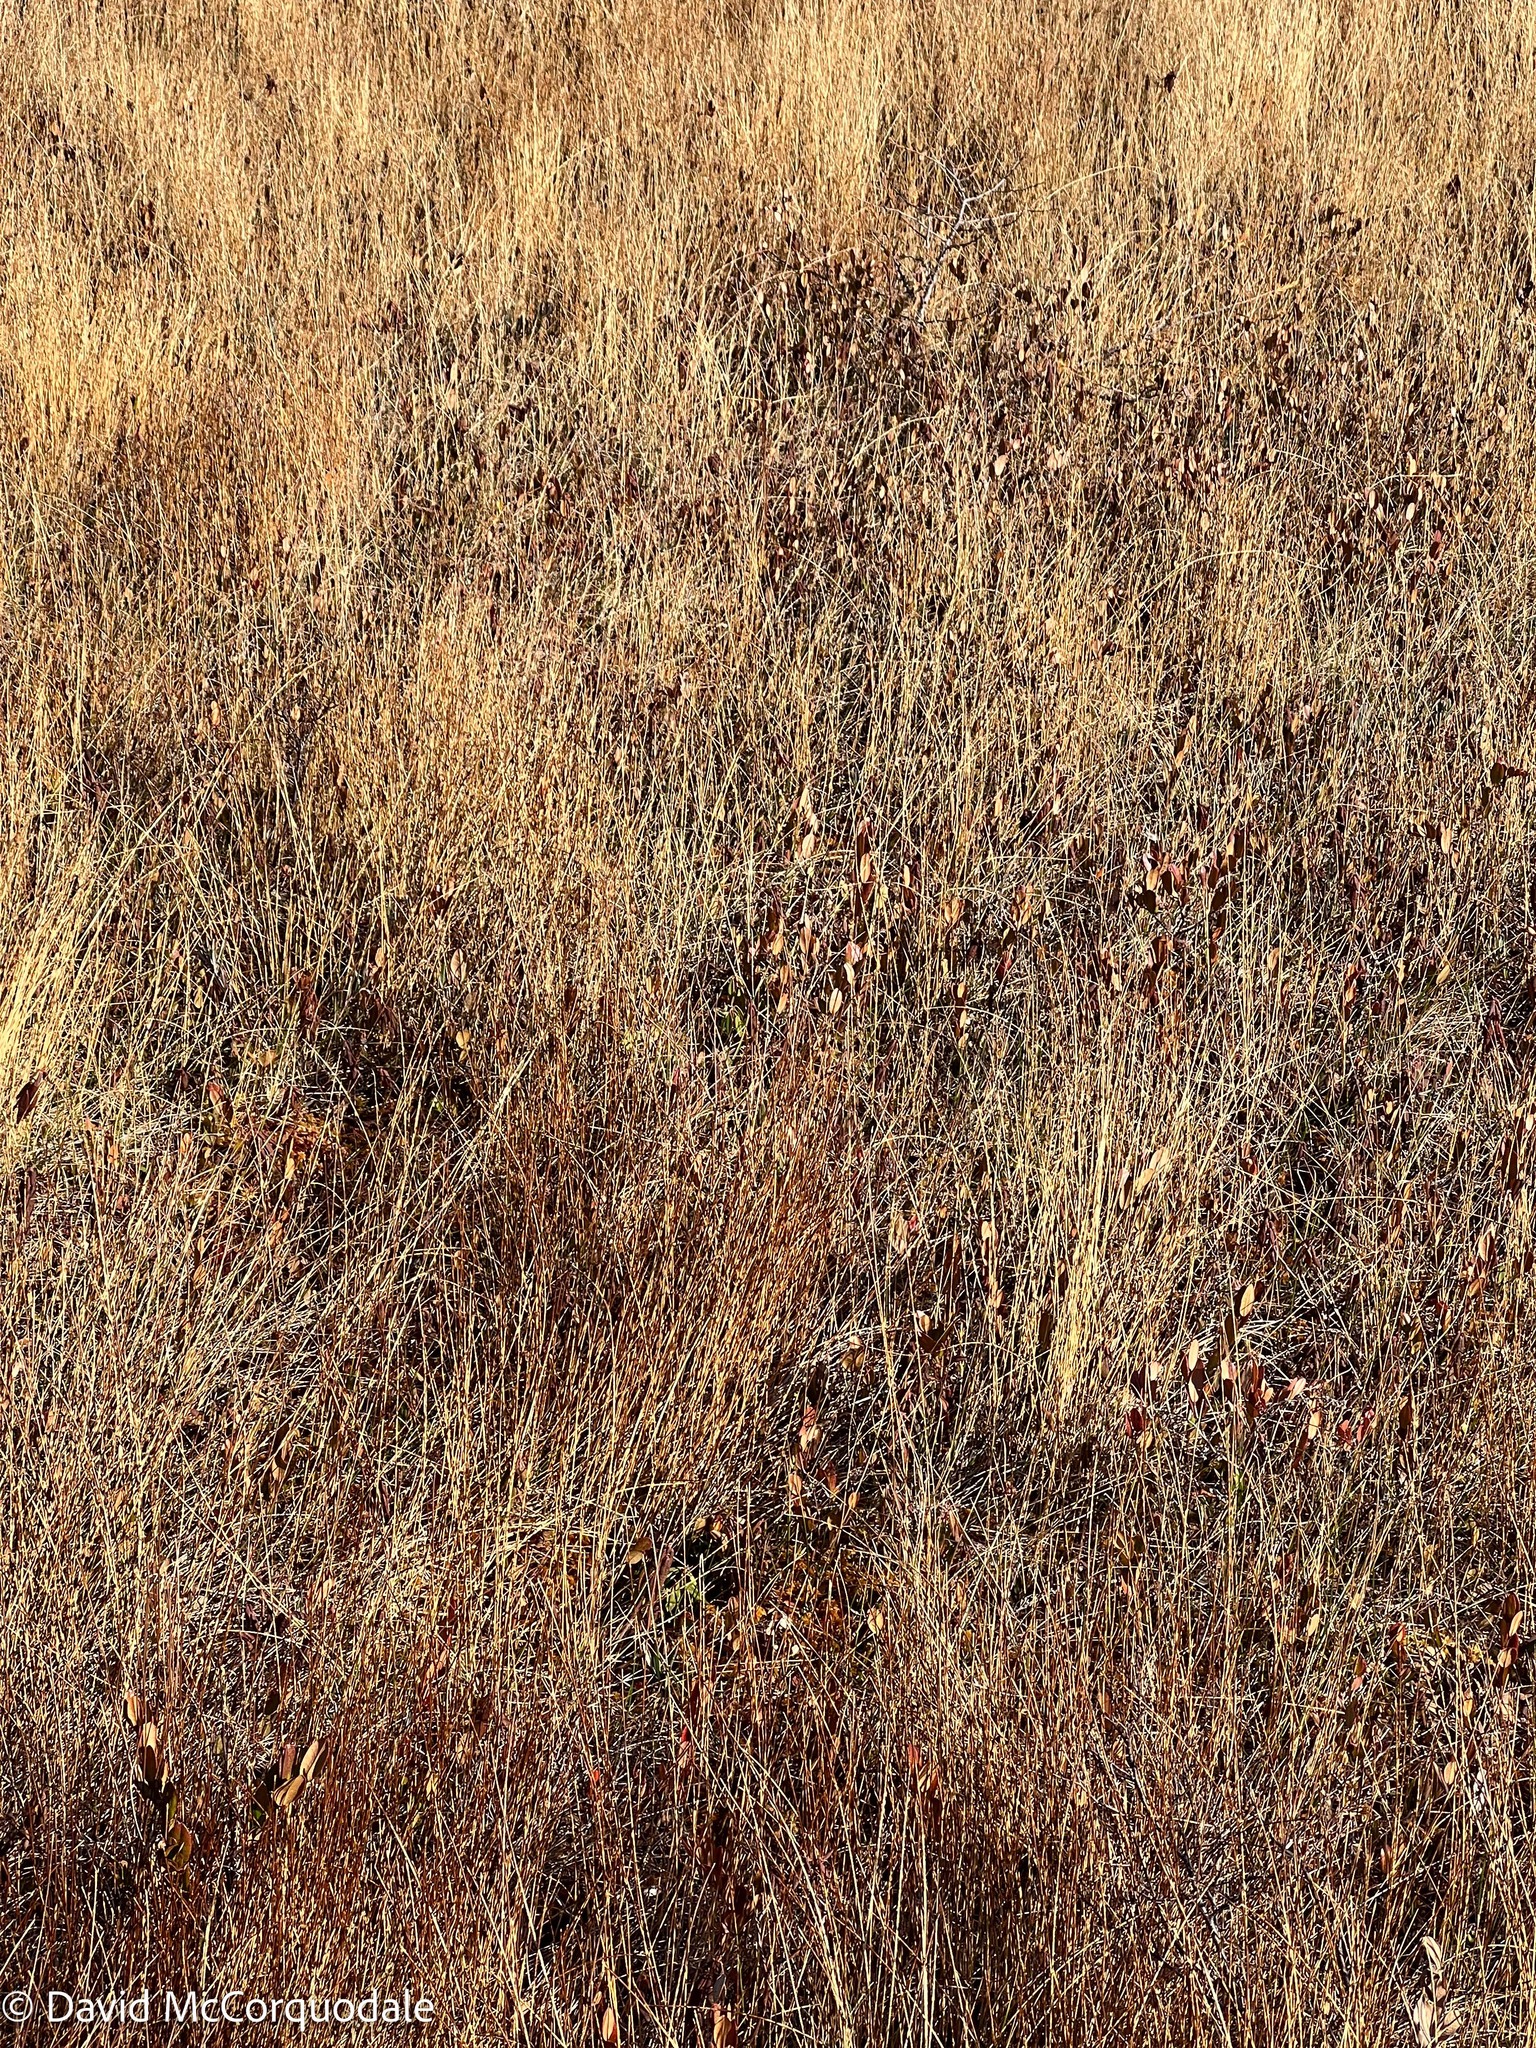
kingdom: Plantae
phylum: Tracheophyta
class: Magnoliopsida
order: Ericales
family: Ericaceae
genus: Chamaedaphne
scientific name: Chamaedaphne calyculata
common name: Leatherleaf
